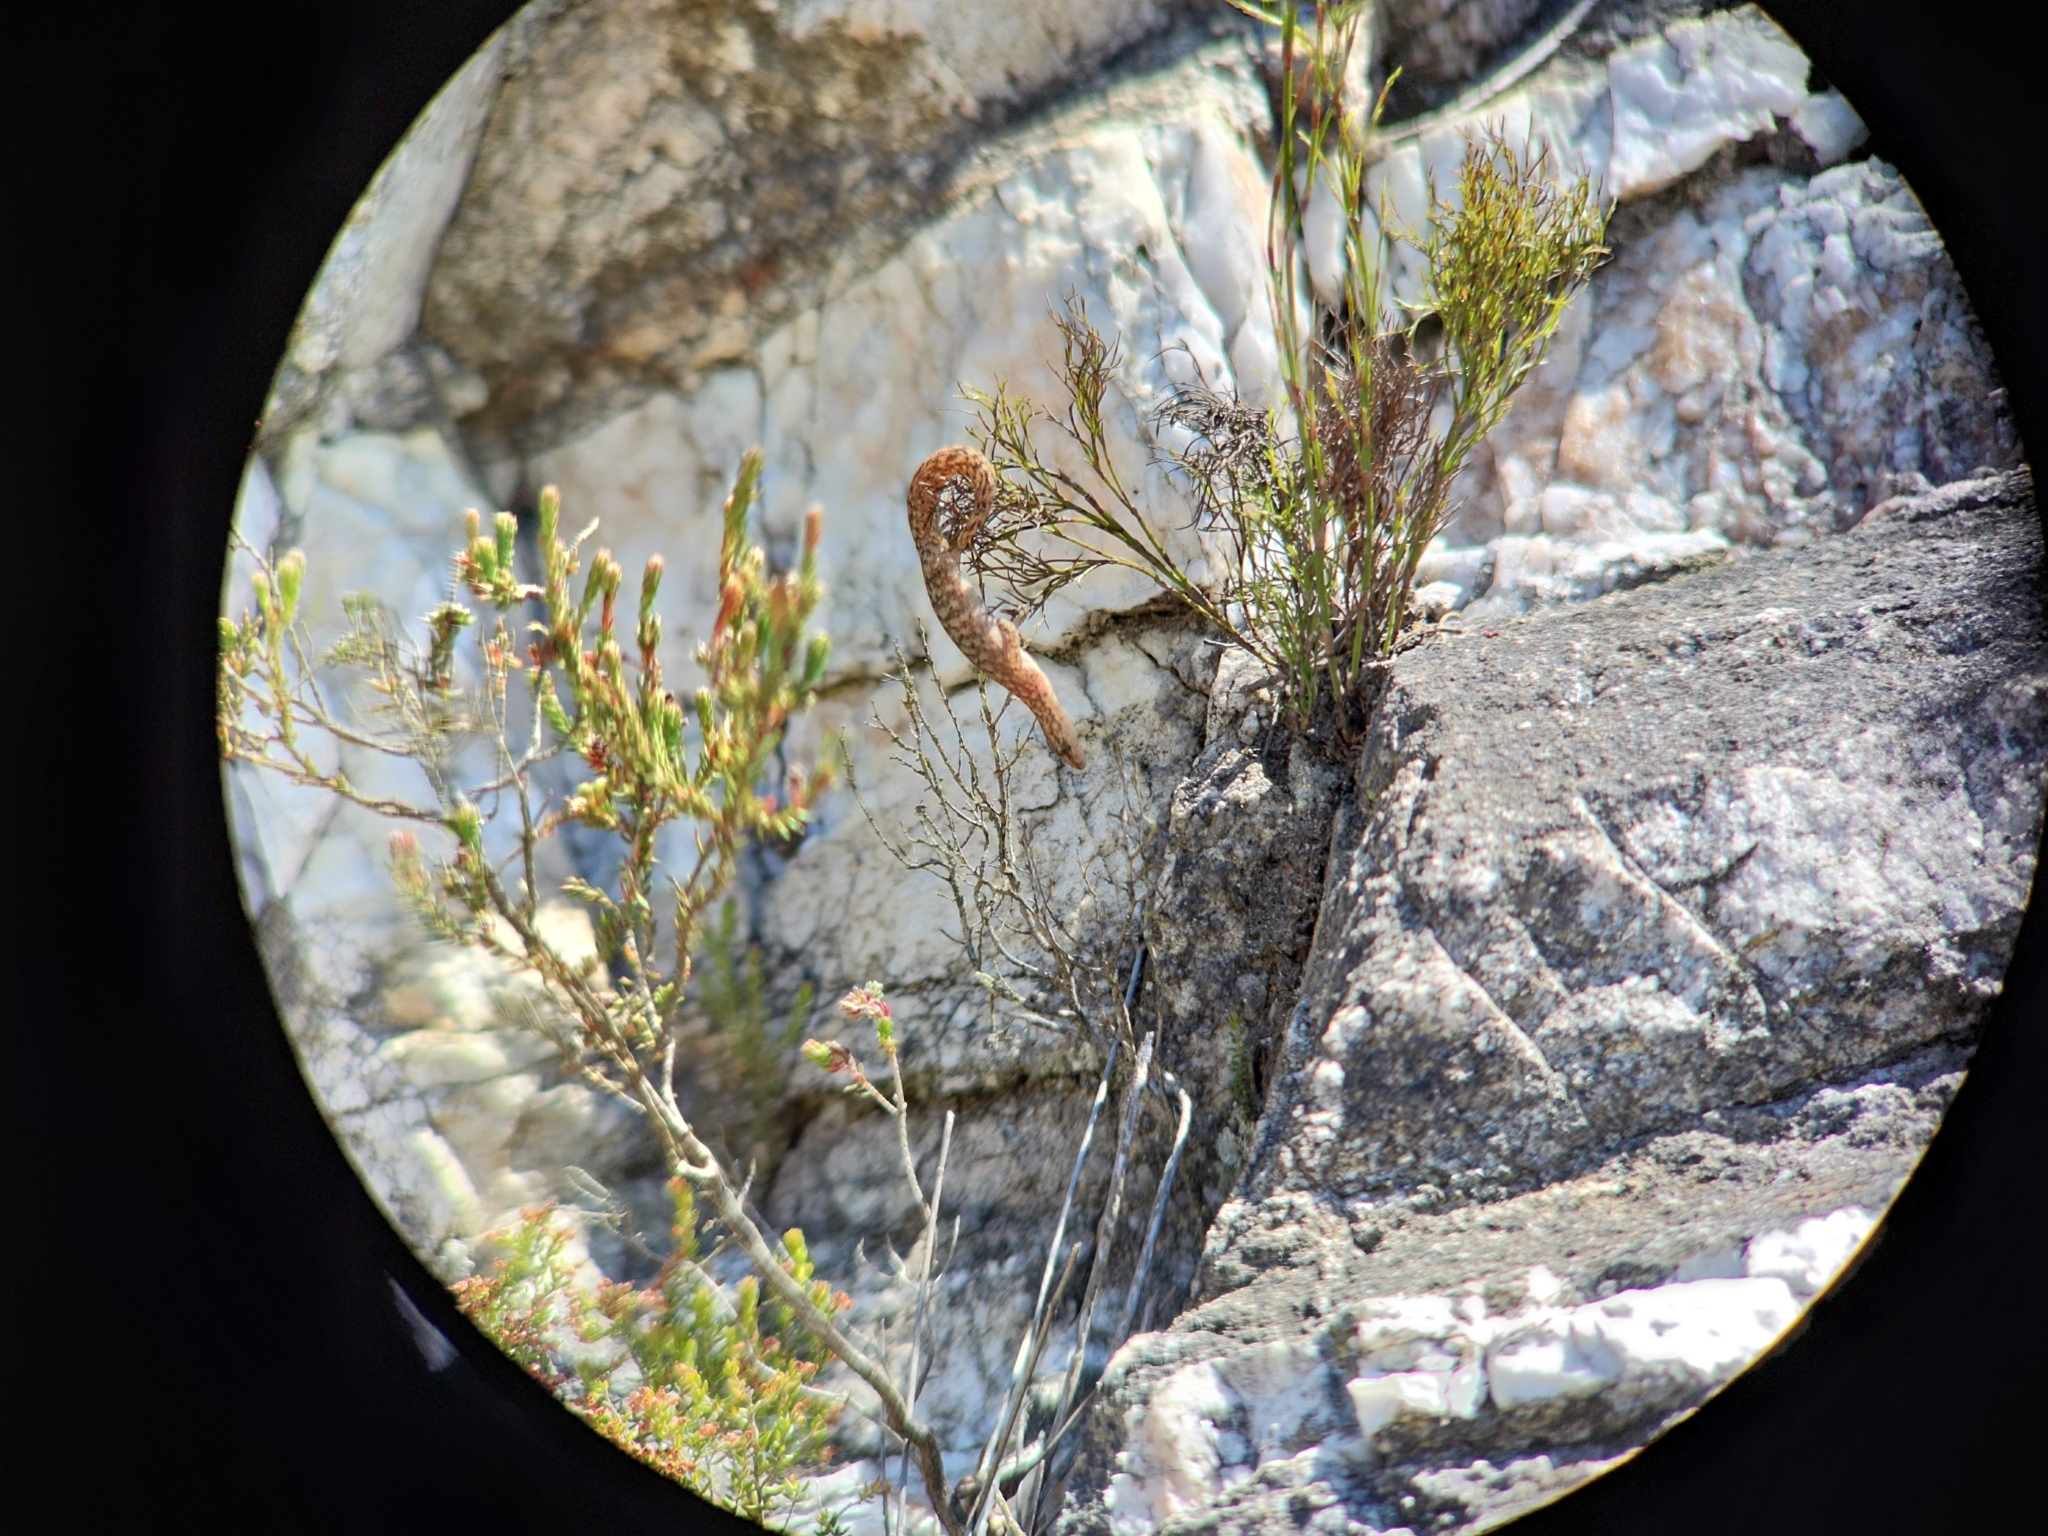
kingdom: Animalia
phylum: Chordata
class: Squamata
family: Gekkonidae
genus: Afrogecko
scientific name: Afrogecko porphyreus
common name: Marbled leaf-toed gecko
